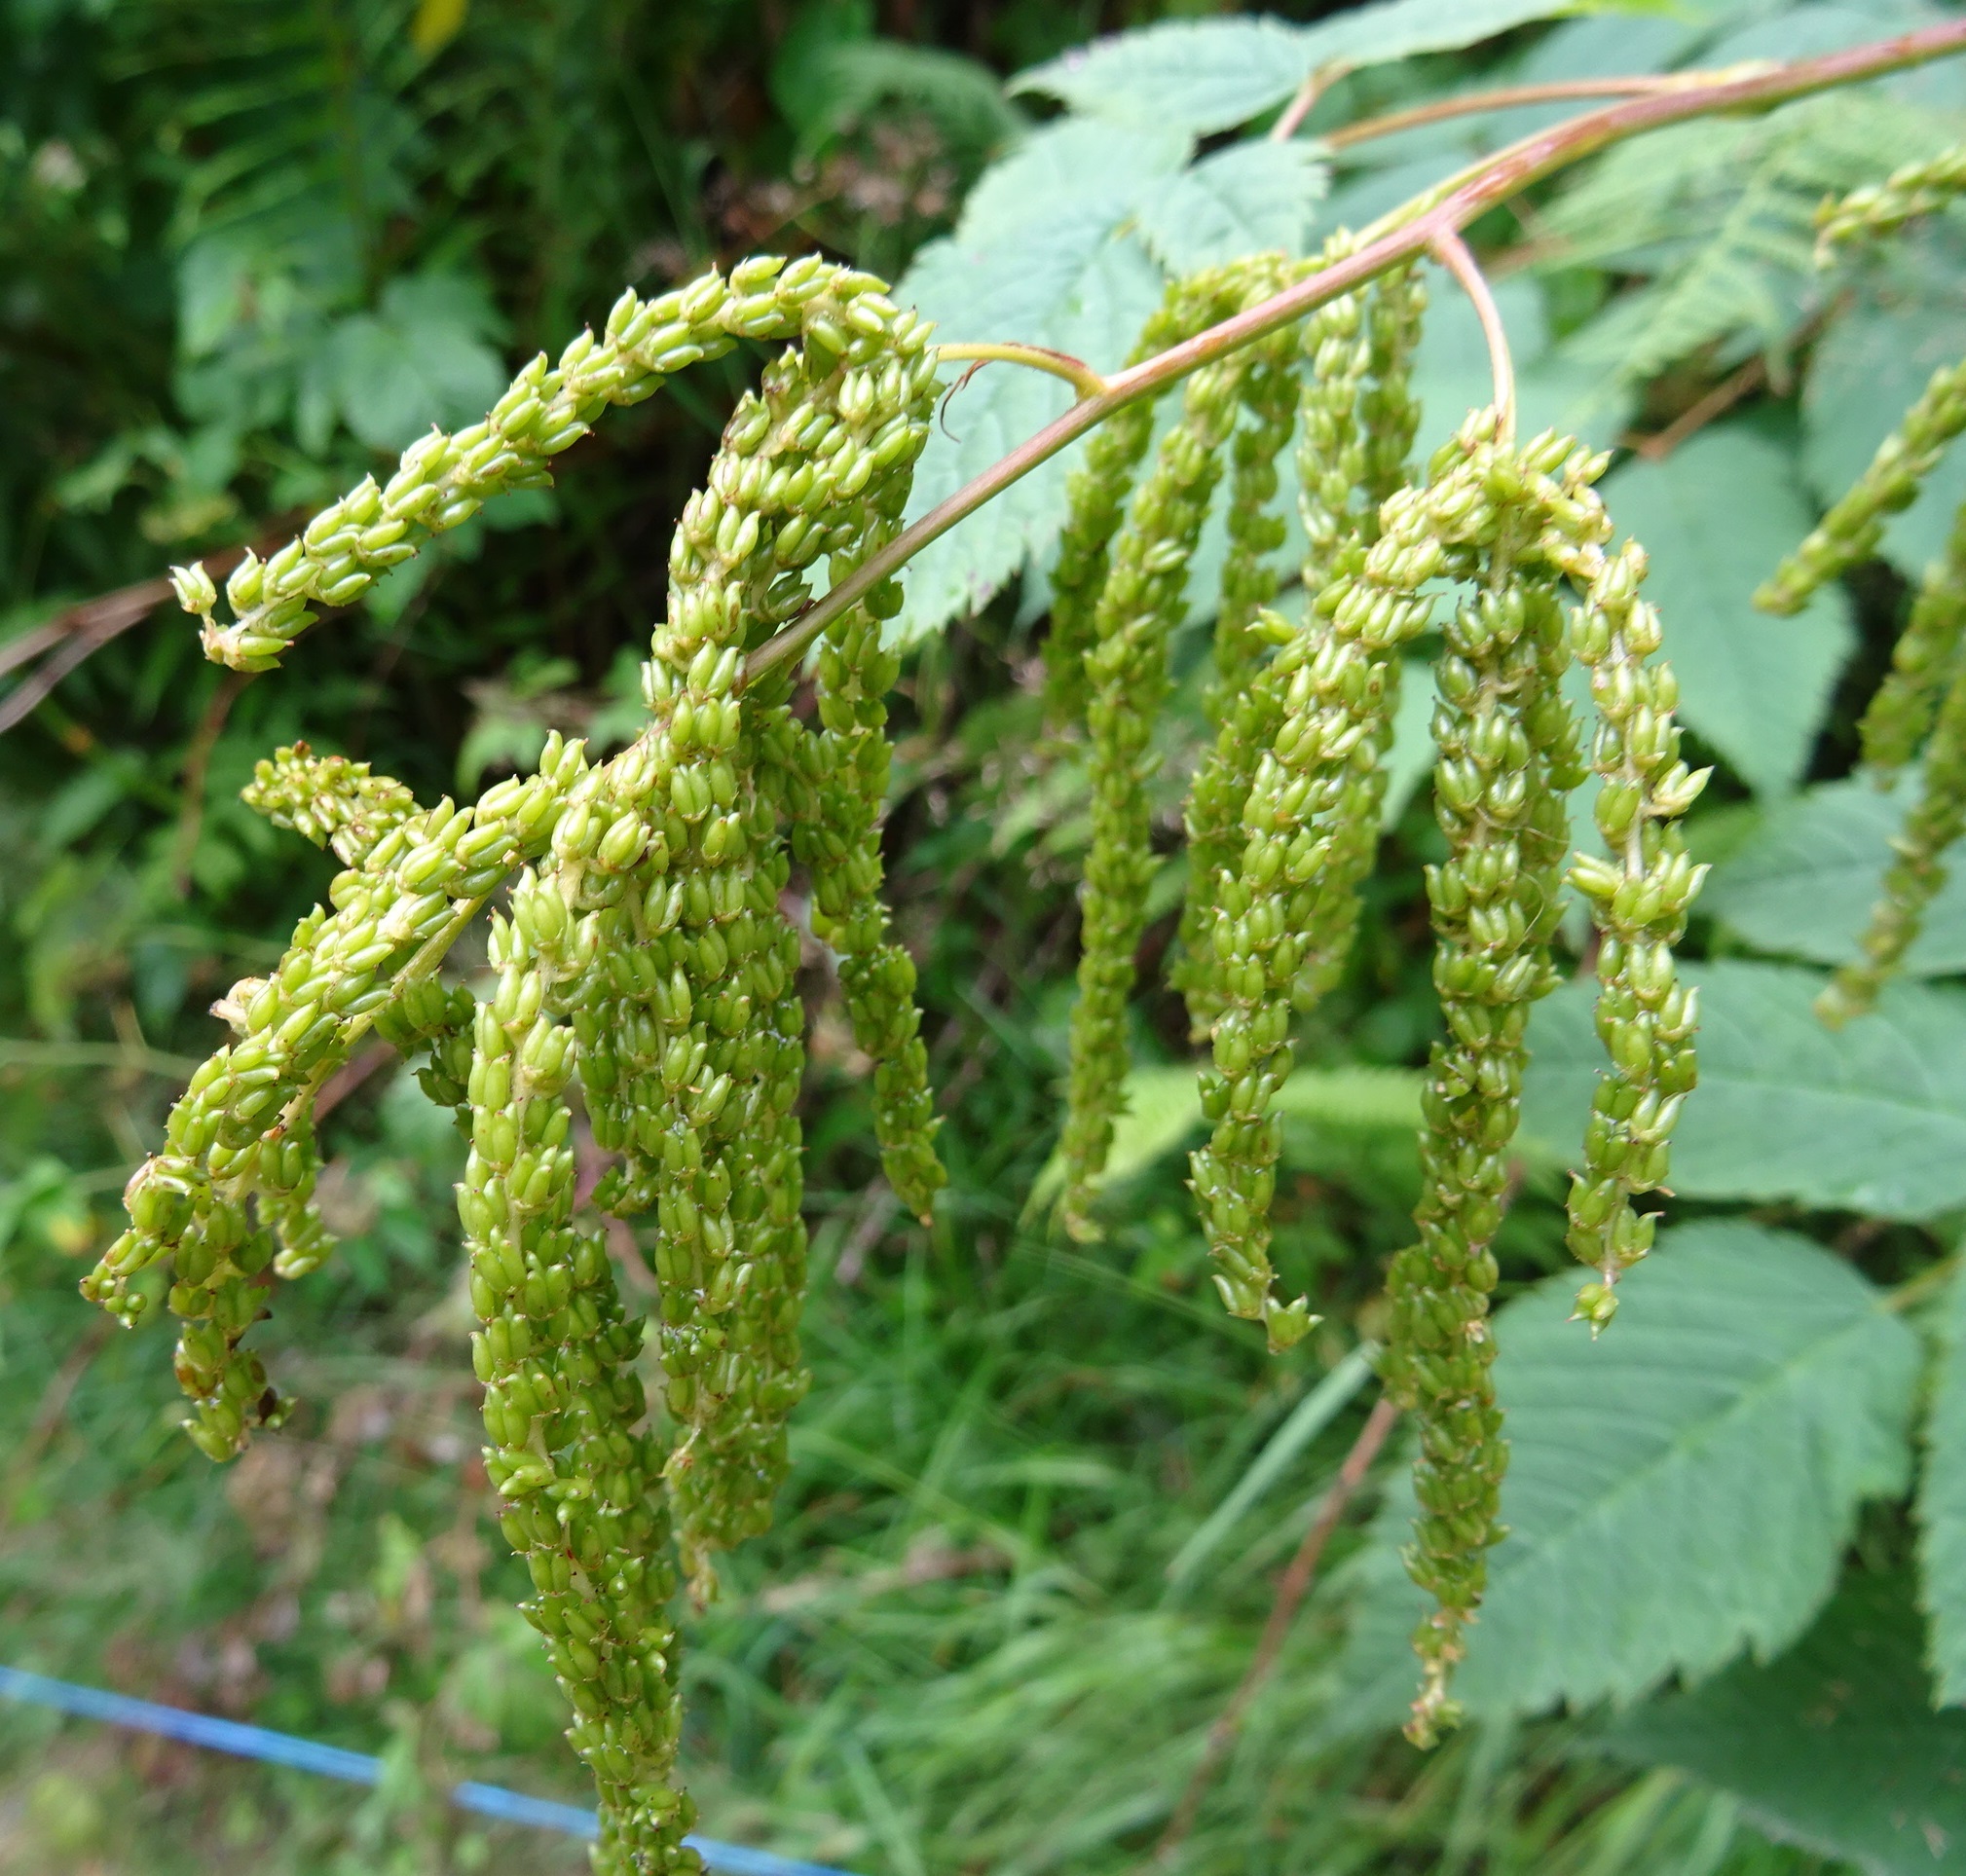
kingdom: Plantae
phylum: Tracheophyta
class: Magnoliopsida
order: Rosales
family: Rosaceae
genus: Aruncus
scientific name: Aruncus dioicus
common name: Buck's-beard
